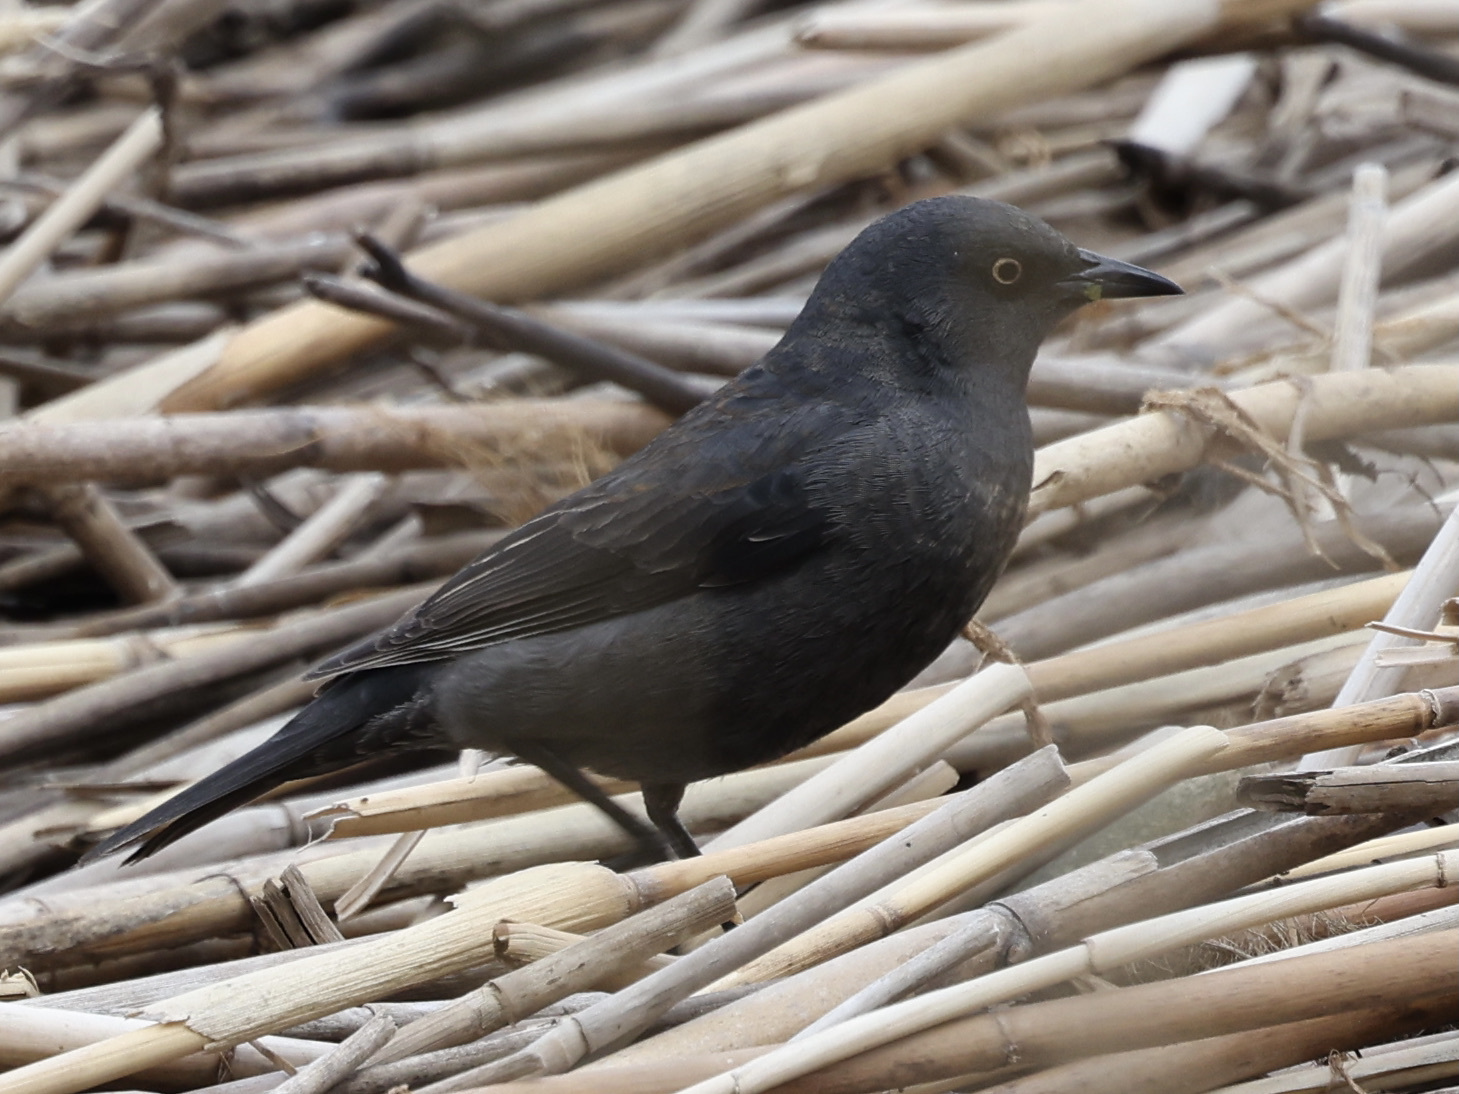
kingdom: Animalia
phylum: Chordata
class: Aves
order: Passeriformes
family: Icteridae
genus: Euphagus
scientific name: Euphagus carolinus
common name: Rusty blackbird
